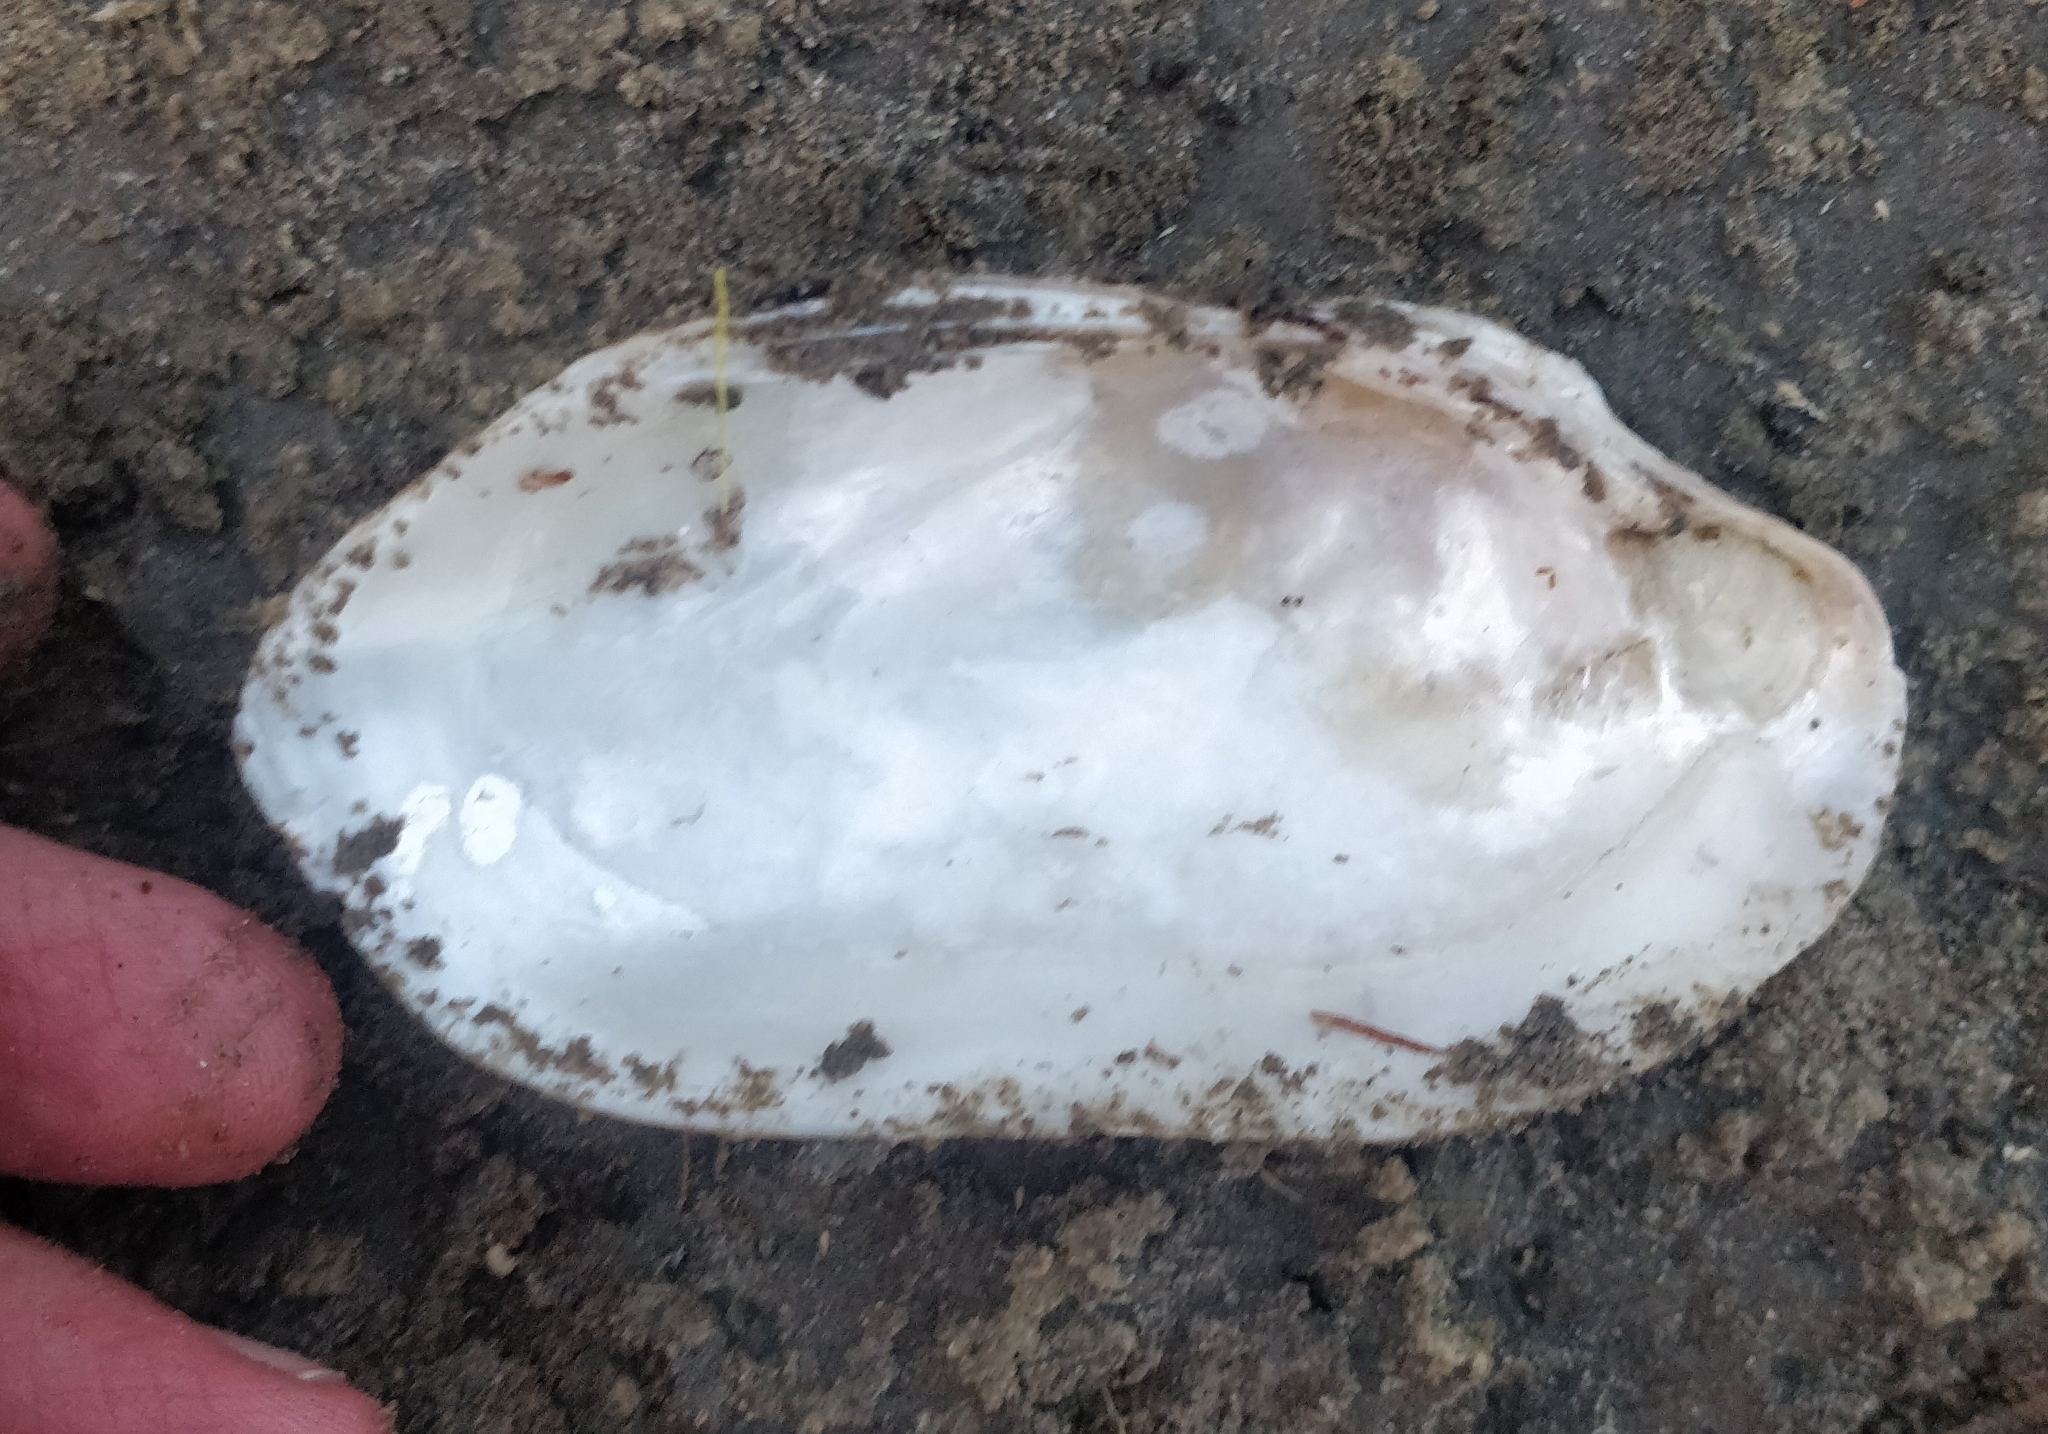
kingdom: Animalia
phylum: Mollusca
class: Bivalvia
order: Unionida
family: Unionidae
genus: Lampsilis
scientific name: Lampsilis siliquoidea
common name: Fatmucket
